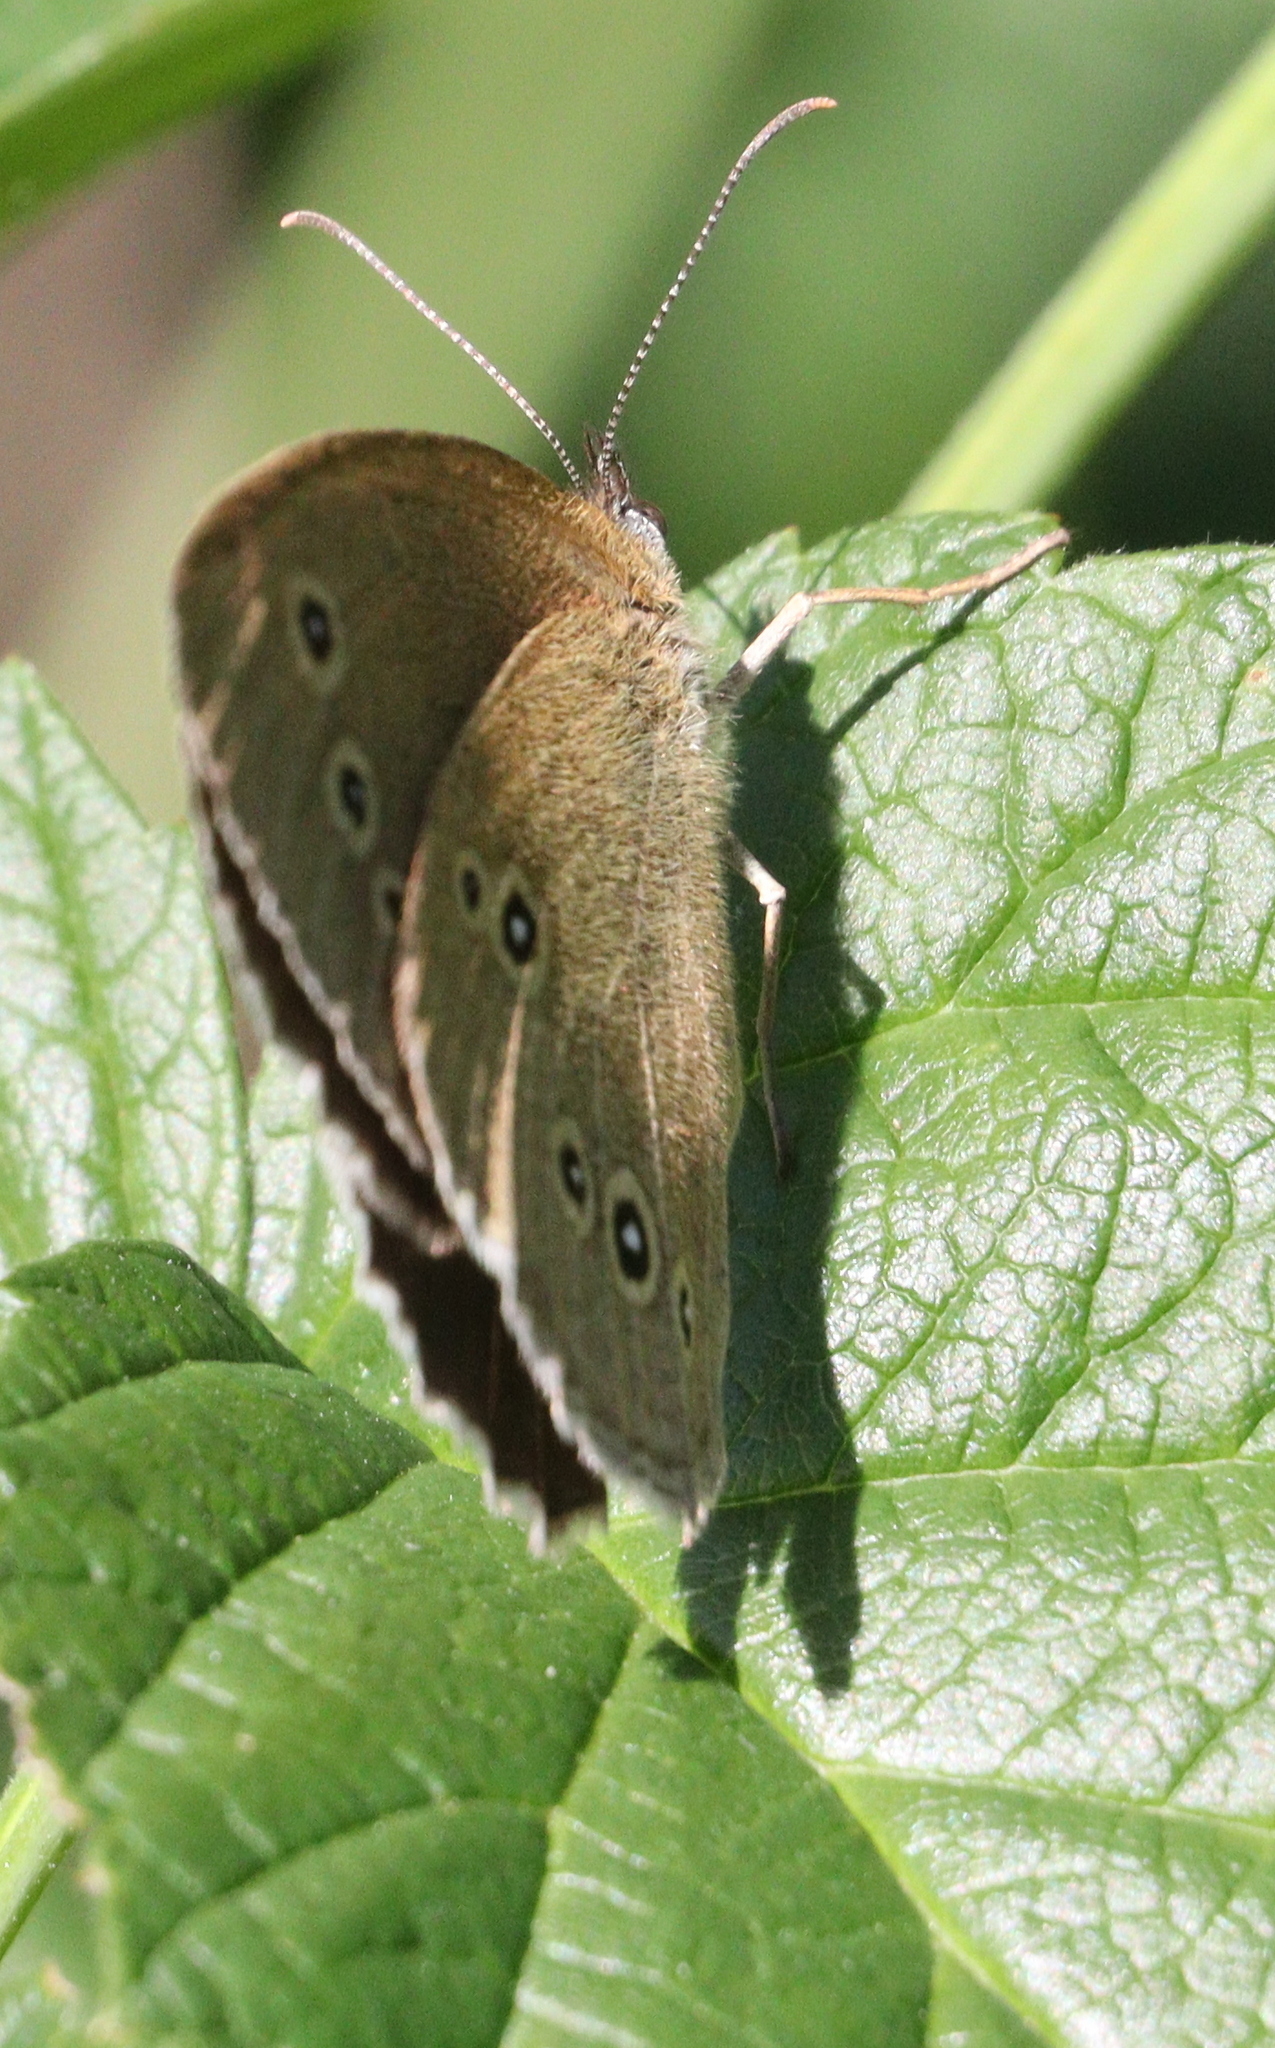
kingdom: Animalia
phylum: Arthropoda
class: Insecta
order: Lepidoptera
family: Nymphalidae
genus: Aphantopus
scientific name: Aphantopus hyperantus
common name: Ringlet
